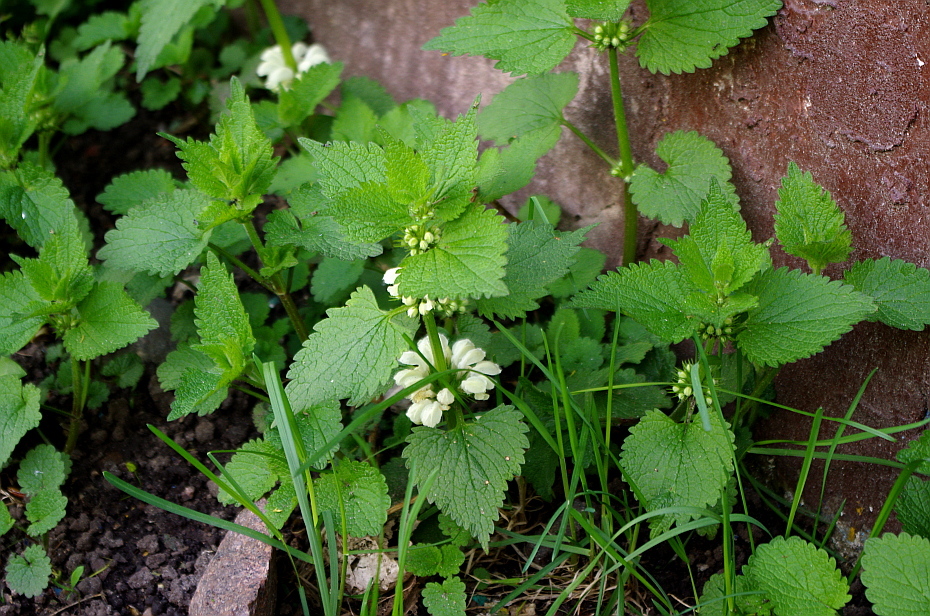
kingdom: Plantae
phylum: Tracheophyta
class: Magnoliopsida
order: Lamiales
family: Lamiaceae
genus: Lamium
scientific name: Lamium album
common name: White dead-nettle
